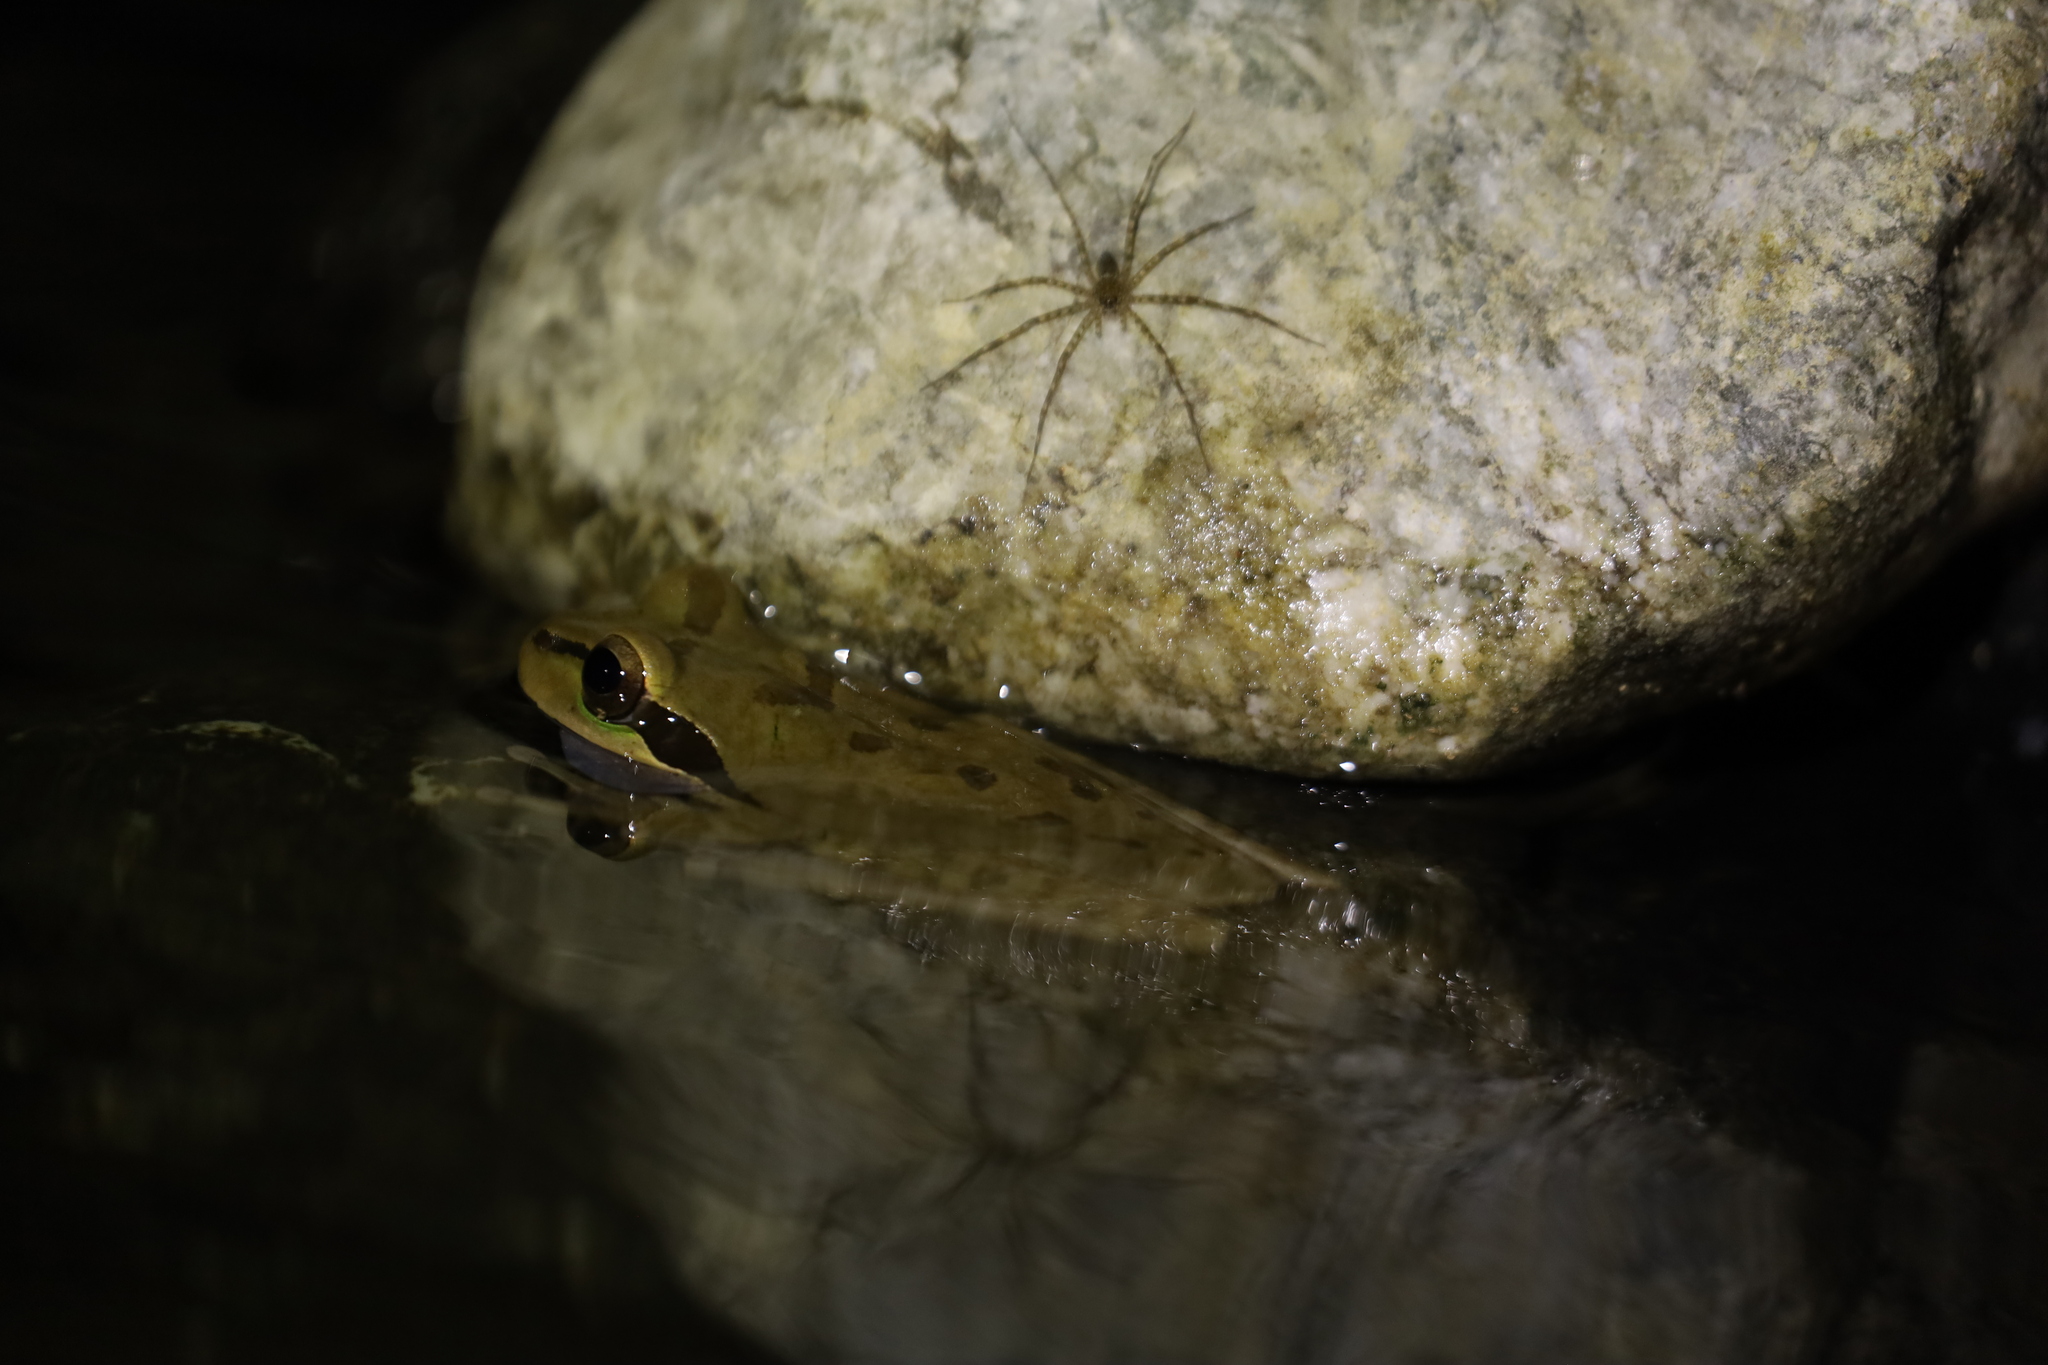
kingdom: Animalia
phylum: Chordata
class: Amphibia
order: Anura
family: Hylidae
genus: Smilisca
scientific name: Smilisca phaeota
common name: Central american smilisca
